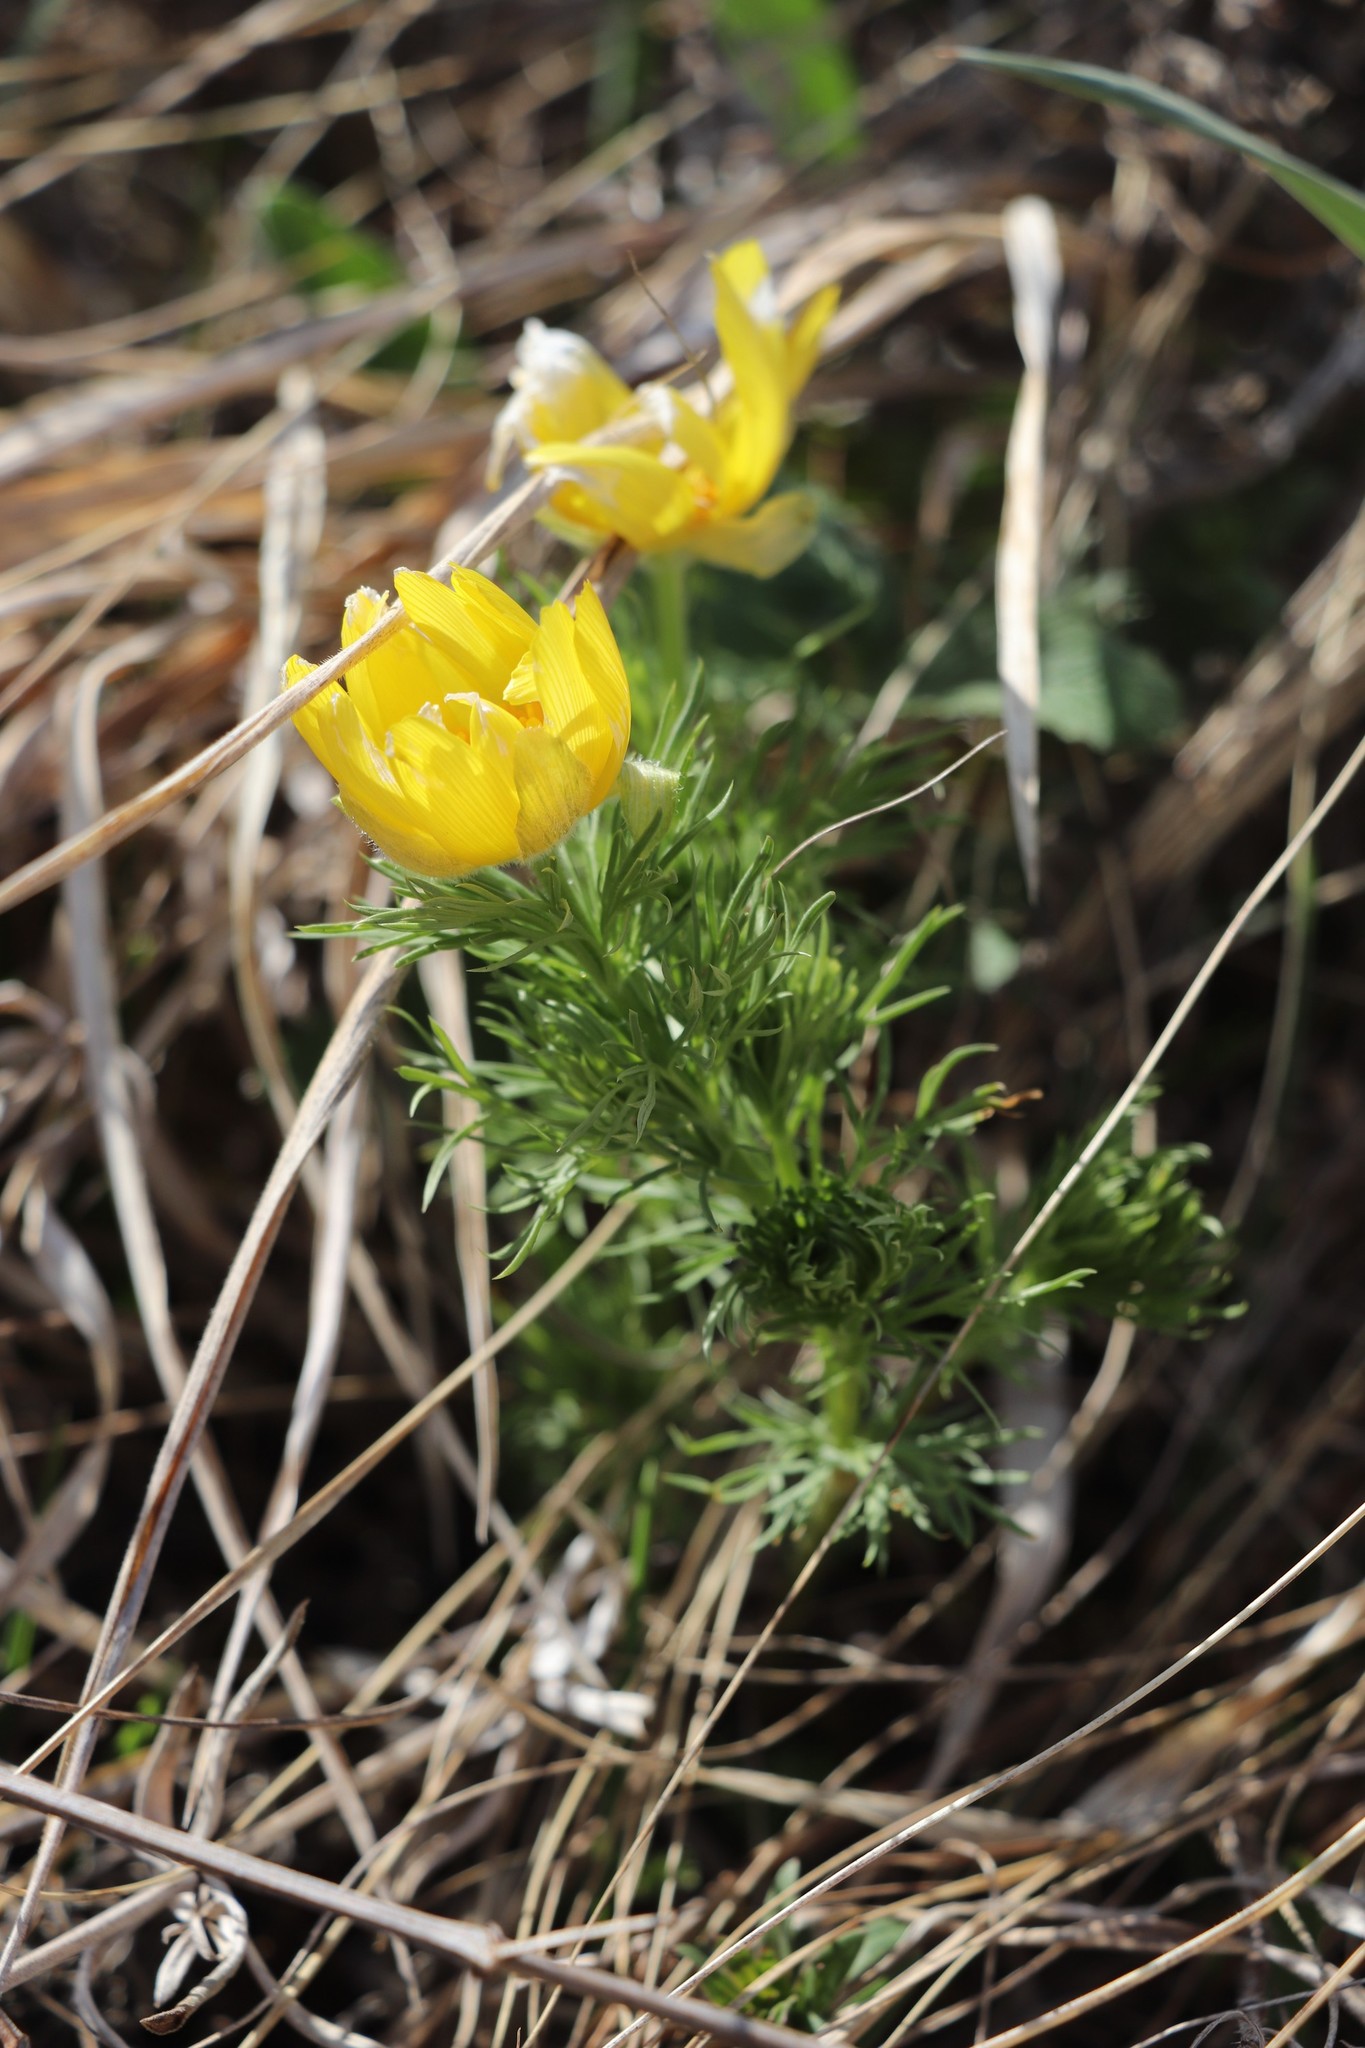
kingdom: Plantae
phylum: Tracheophyta
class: Magnoliopsida
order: Ranunculales
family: Ranunculaceae
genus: Adonis
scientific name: Adonis vernalis
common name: Yellow pheasants-eye
